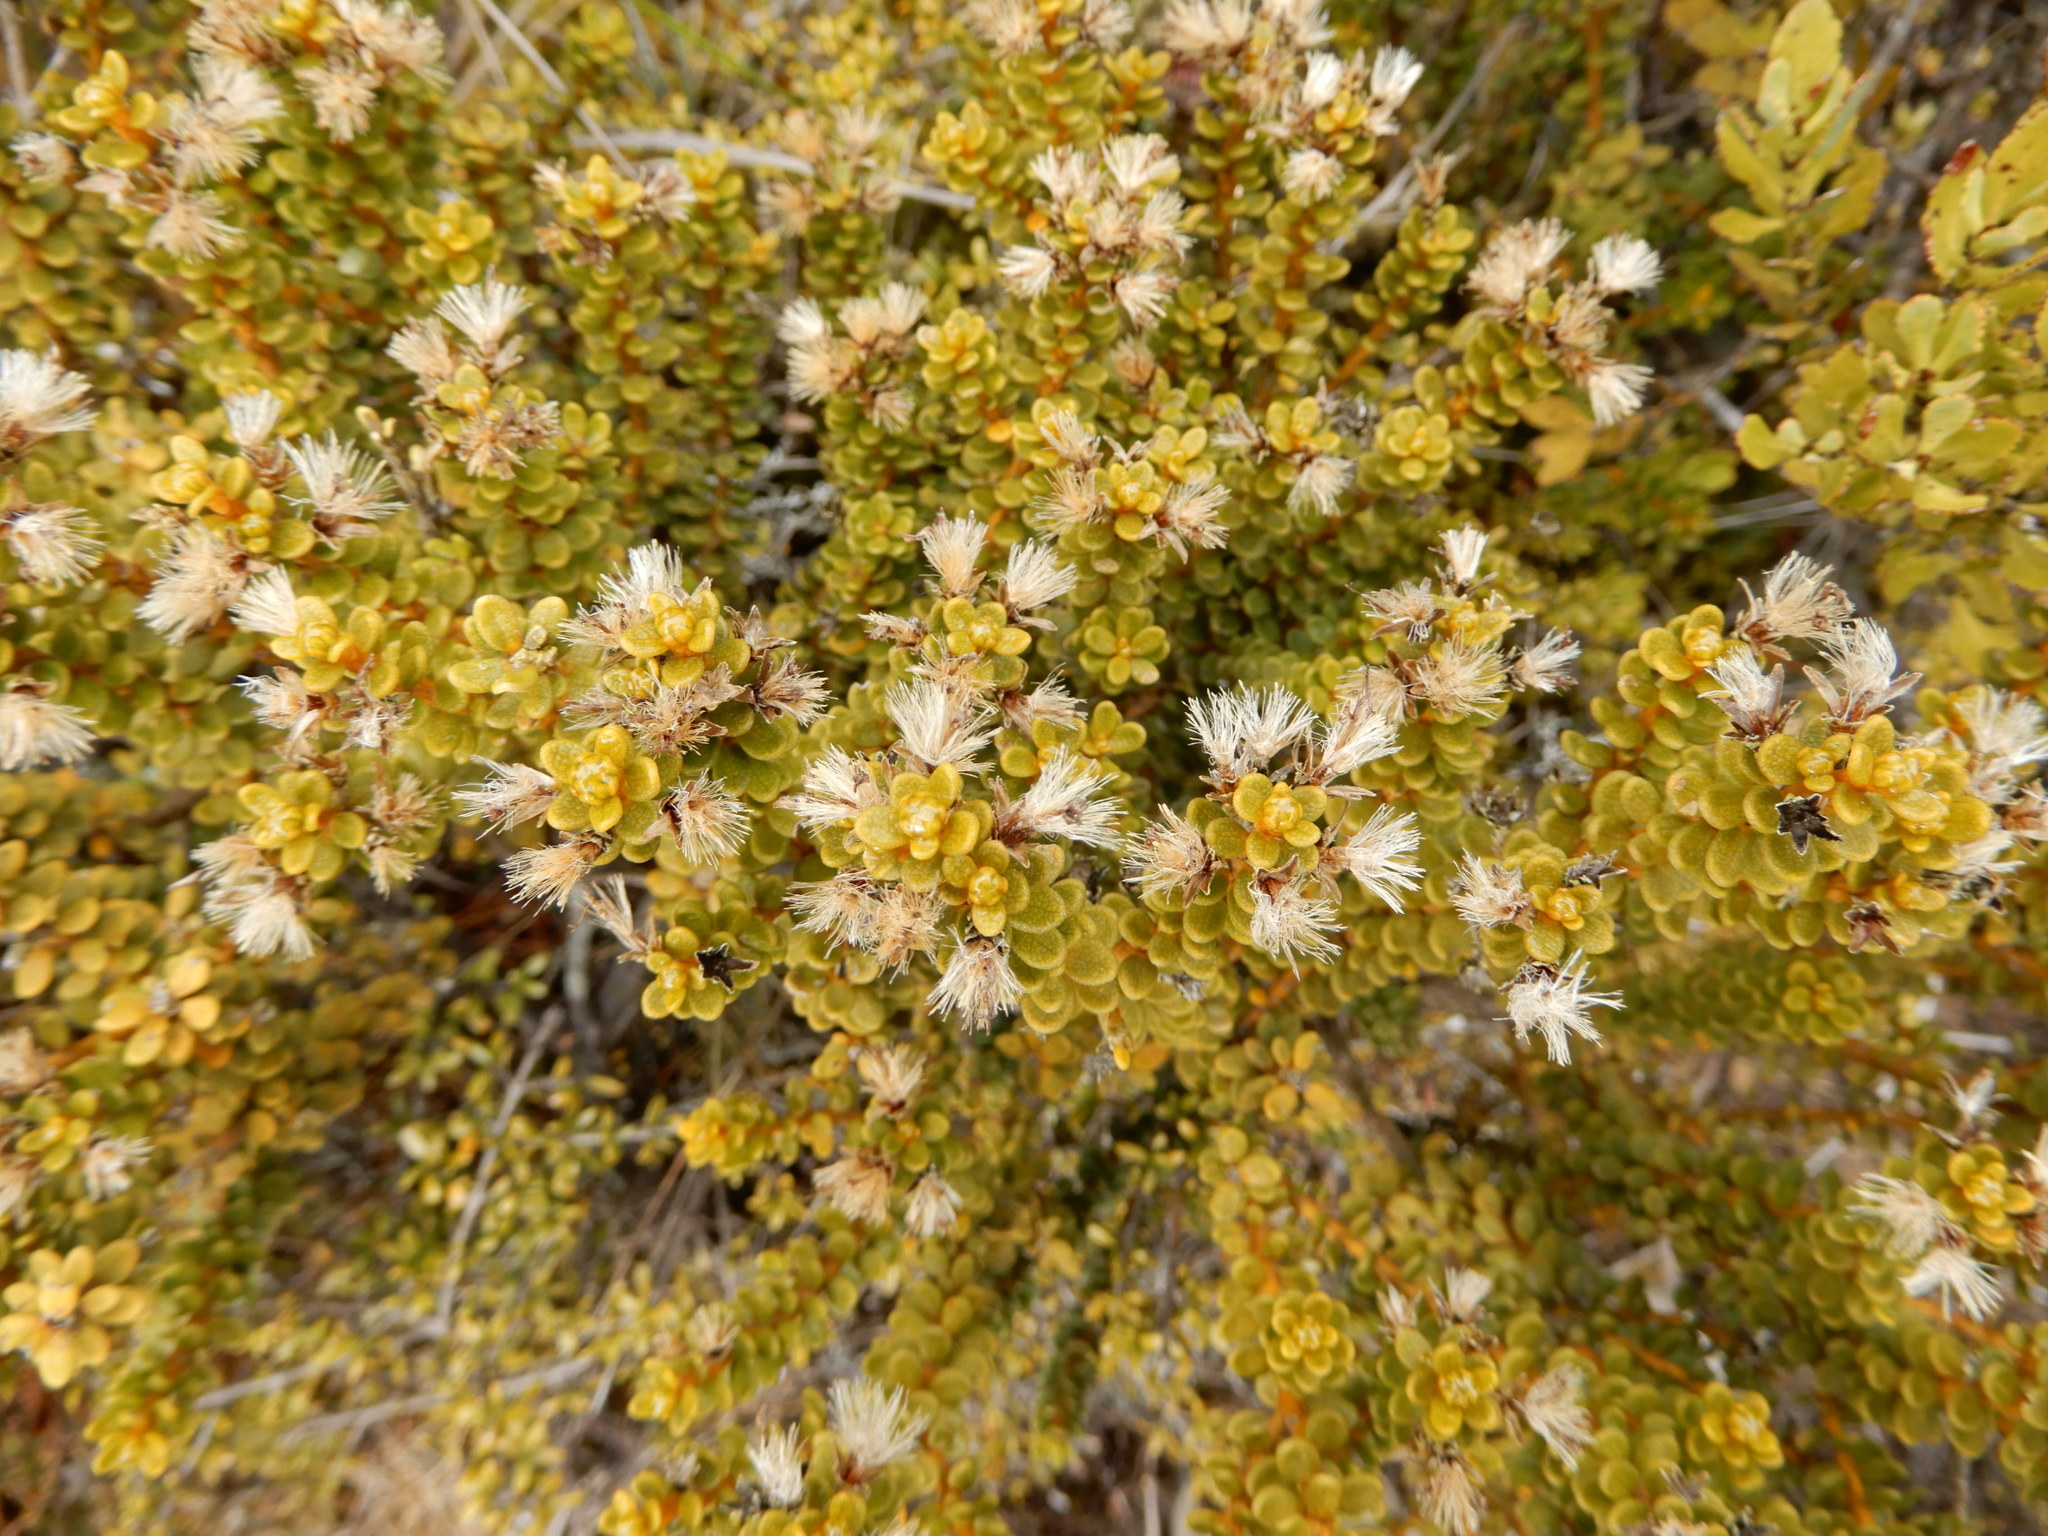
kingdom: Plantae
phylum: Tracheophyta
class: Magnoliopsida
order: Asterales
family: Asteraceae
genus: Olearia
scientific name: Olearia nummularifolia
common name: Sticky daisybush
